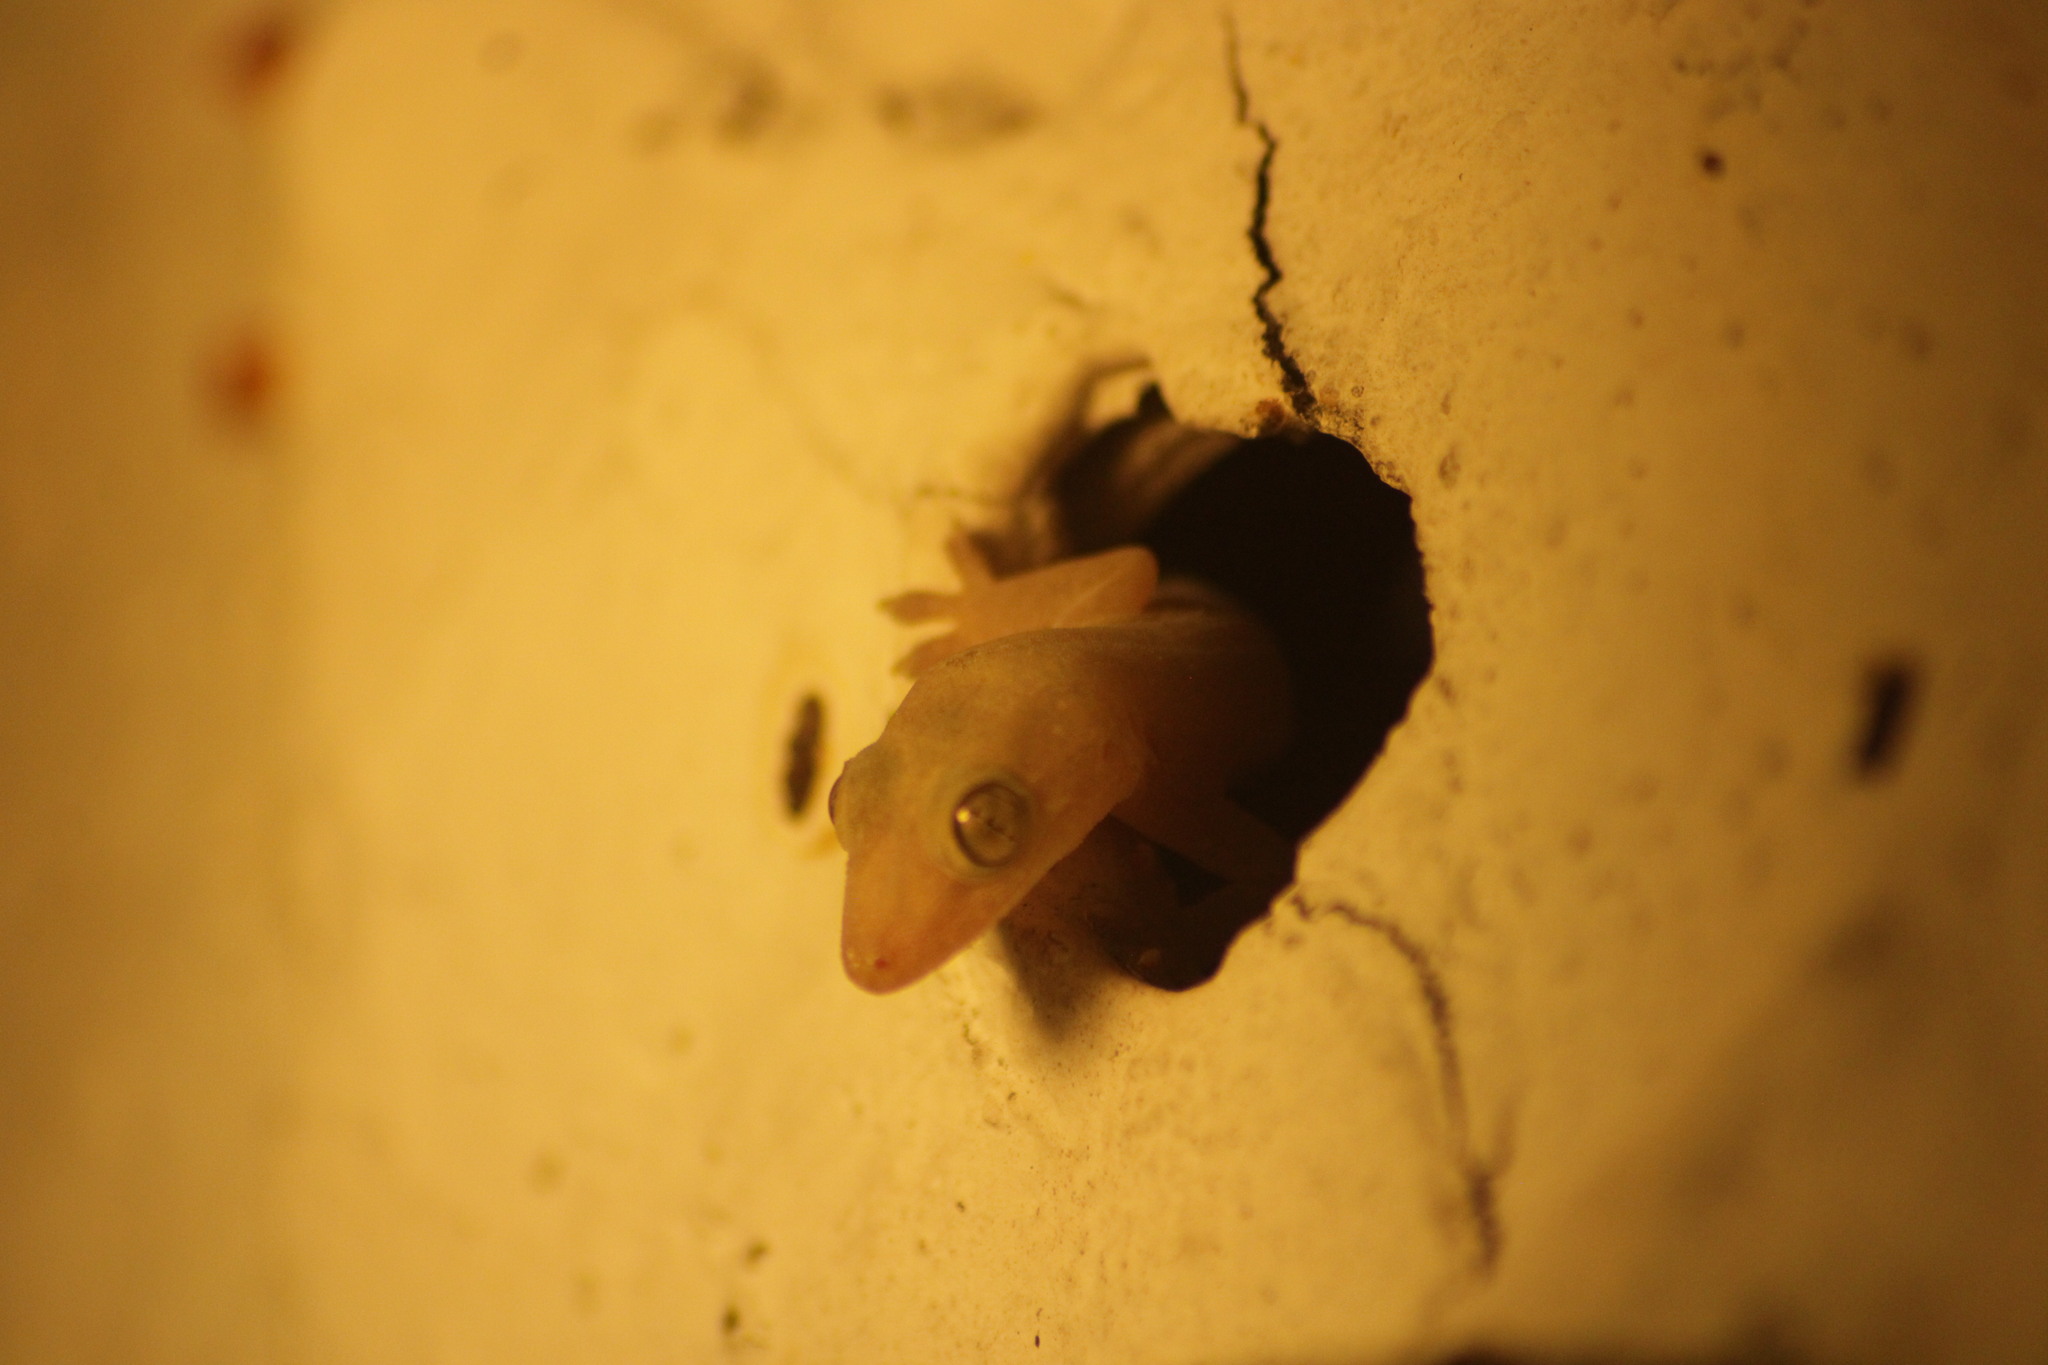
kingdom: Animalia
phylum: Chordata
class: Squamata
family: Gekkonidae
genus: Gehyra
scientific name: Gehyra mutilata
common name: Stump-toed gecko
